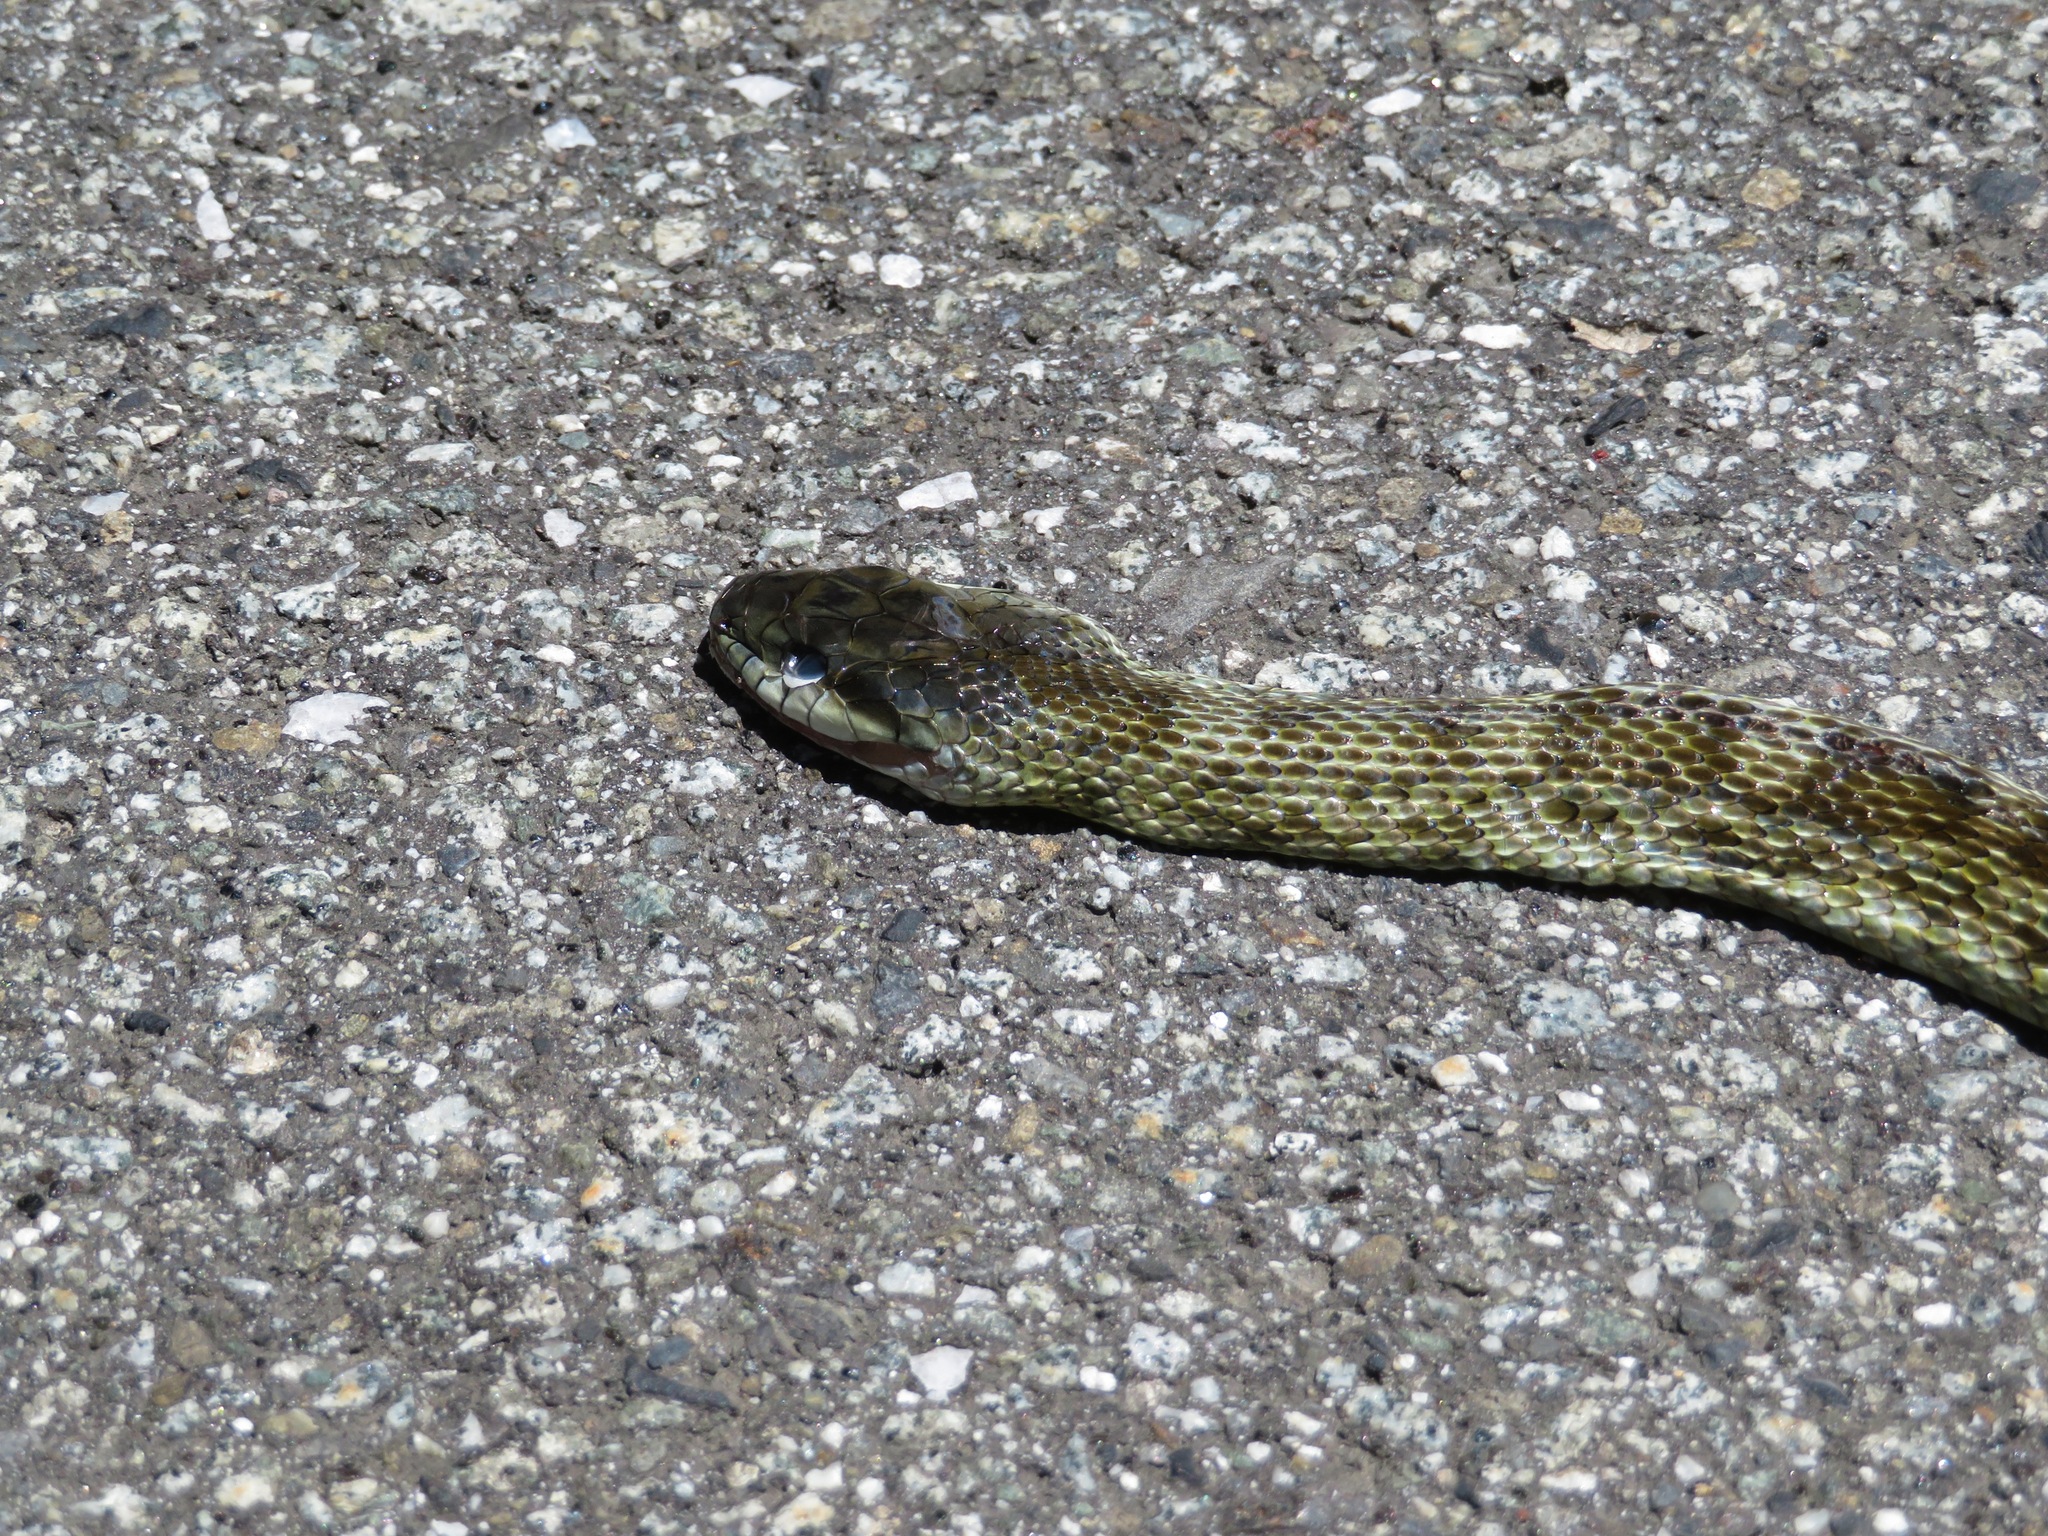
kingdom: Animalia
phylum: Chordata
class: Squamata
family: Colubridae
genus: Elaphe
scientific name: Elaphe climacophora
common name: Japanese ratsnake
